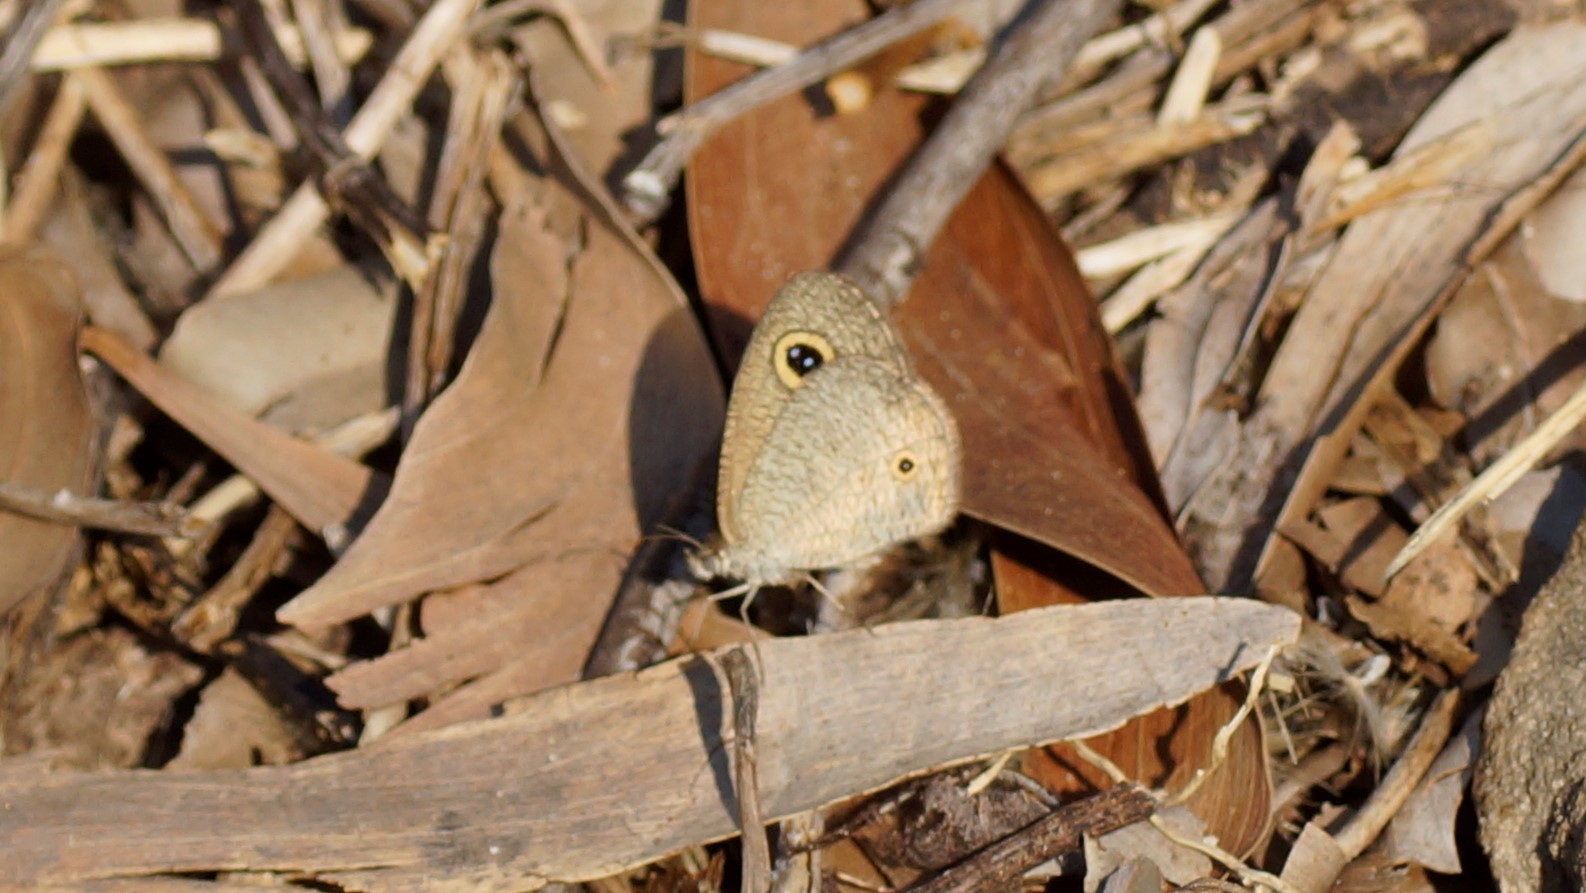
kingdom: Animalia
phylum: Arthropoda
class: Insecta
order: Lepidoptera
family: Nymphalidae
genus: Ypthima
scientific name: Ypthima arctous
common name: Dusky knight
